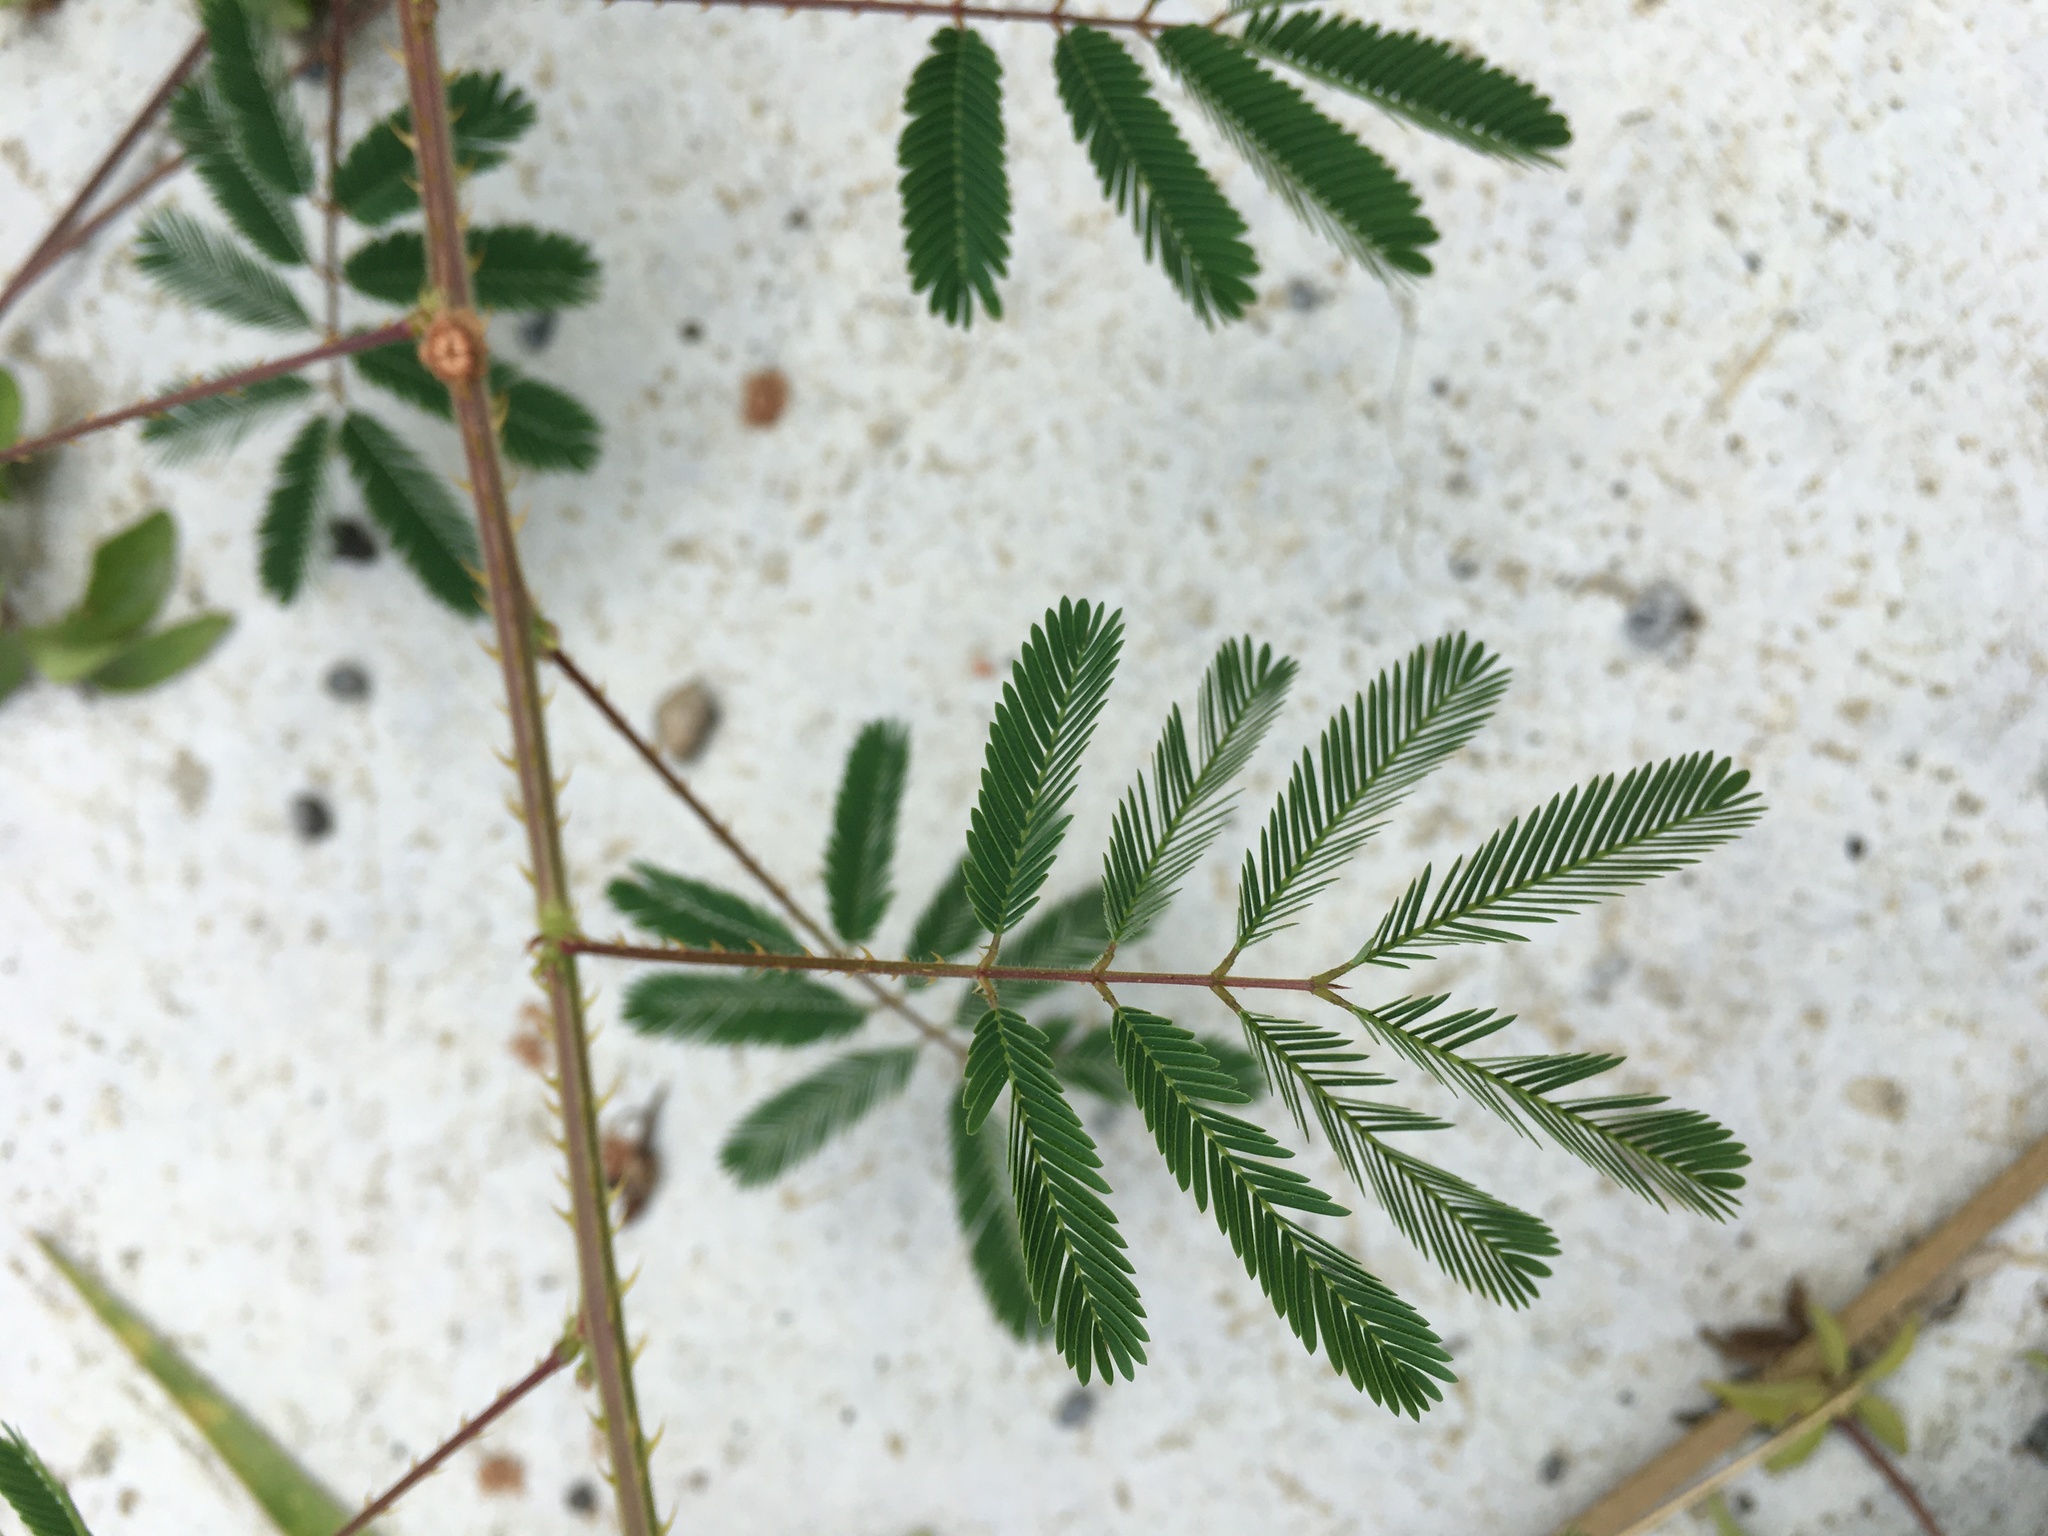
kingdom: Plantae
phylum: Tracheophyta
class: Magnoliopsida
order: Fabales
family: Fabaceae
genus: Mimosa
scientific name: Mimosa diplotricha
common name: Giant sensitive-plant
